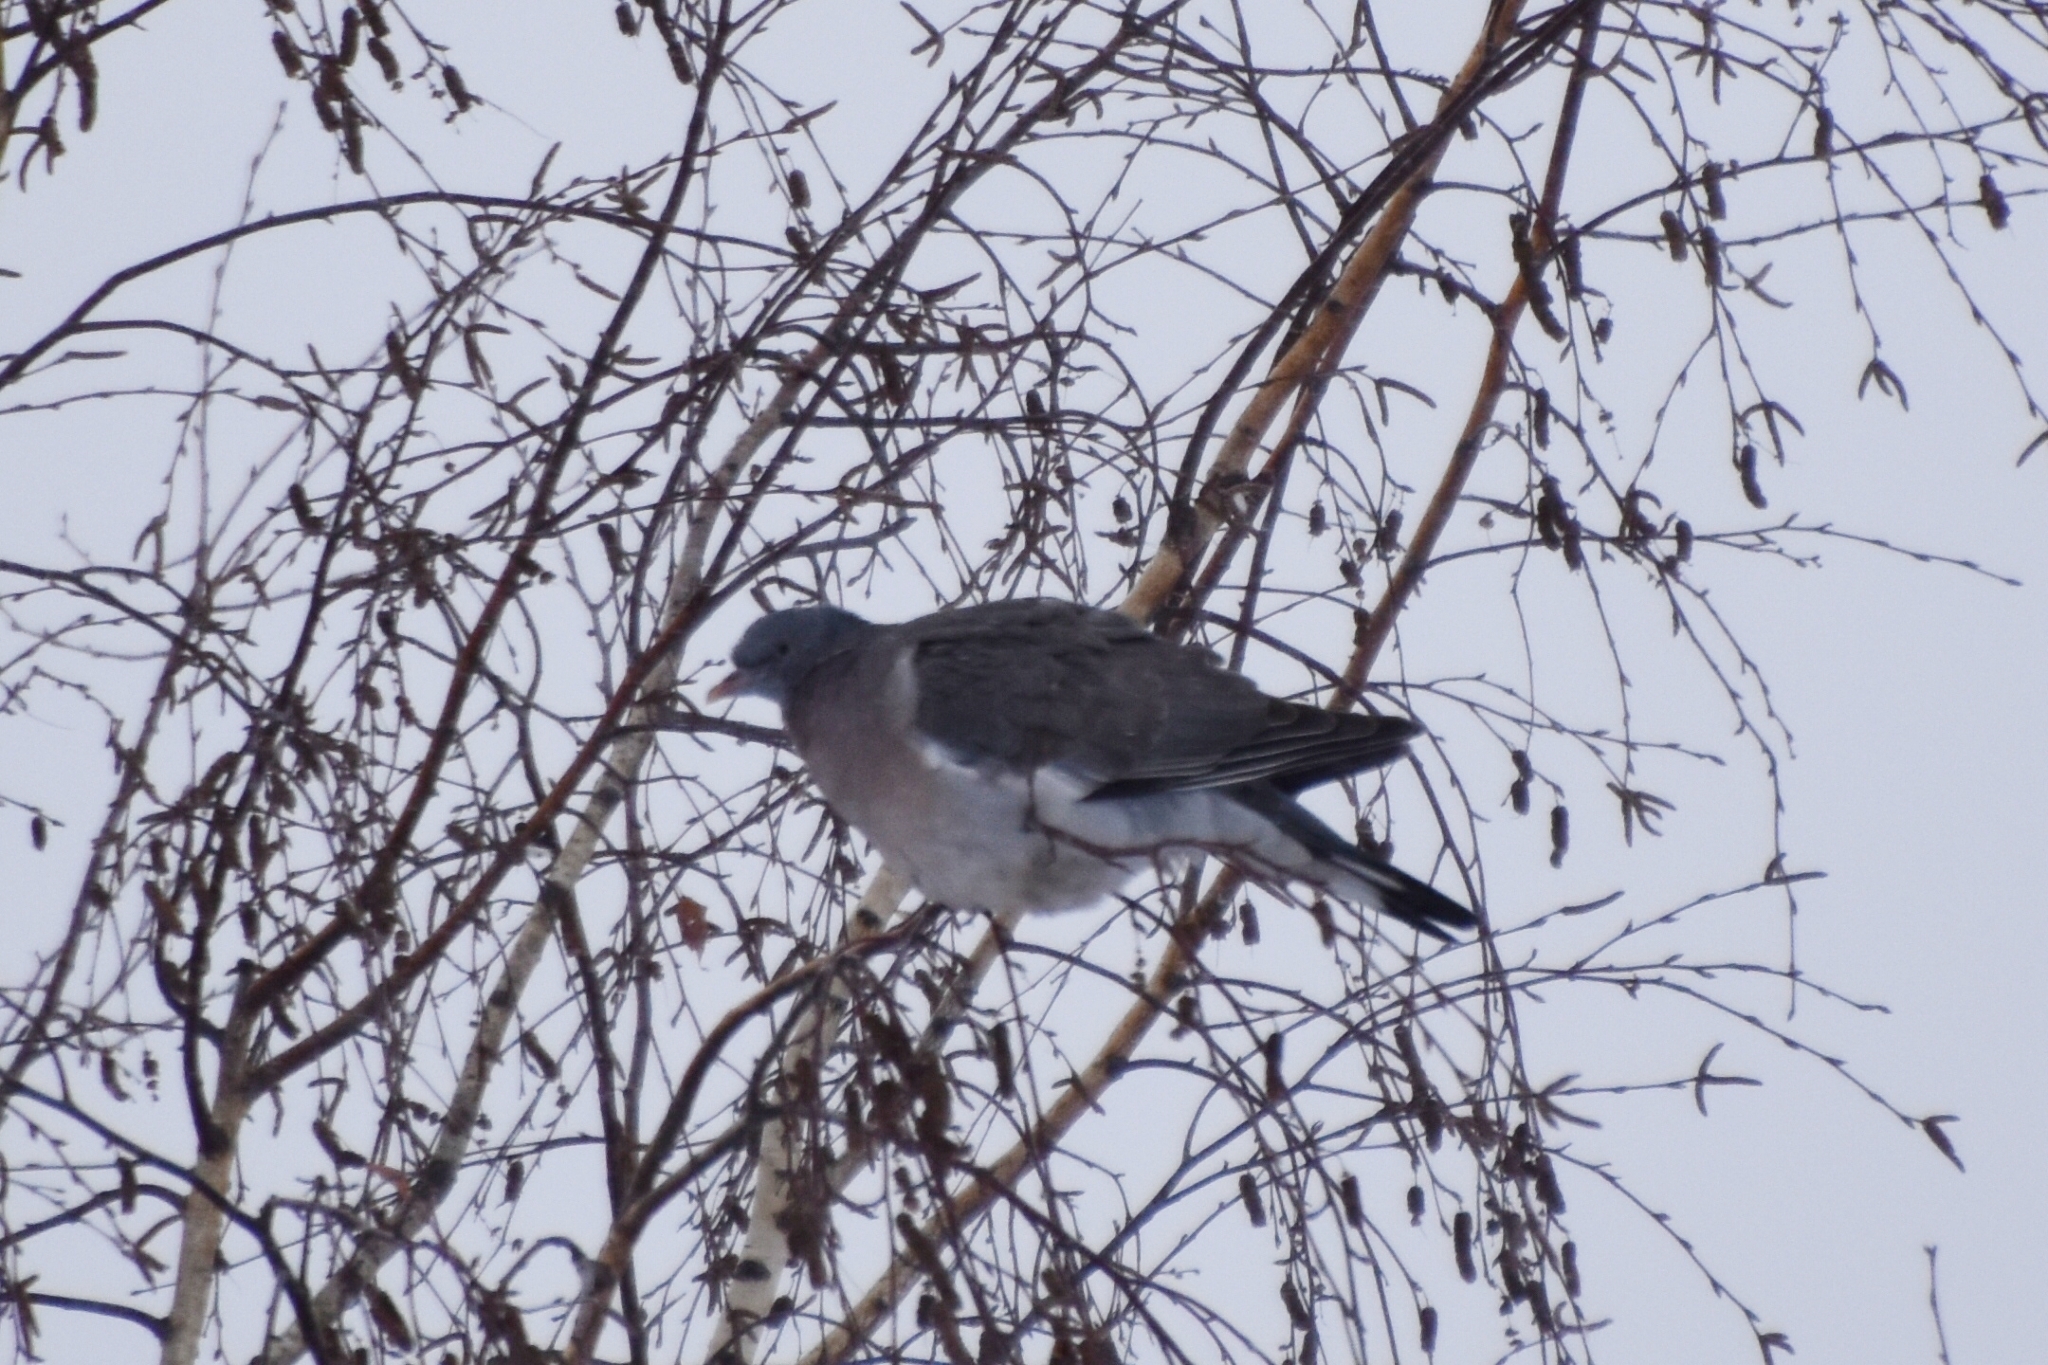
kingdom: Animalia
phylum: Chordata
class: Aves
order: Columbiformes
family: Columbidae
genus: Columba
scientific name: Columba palumbus
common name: Common wood pigeon
